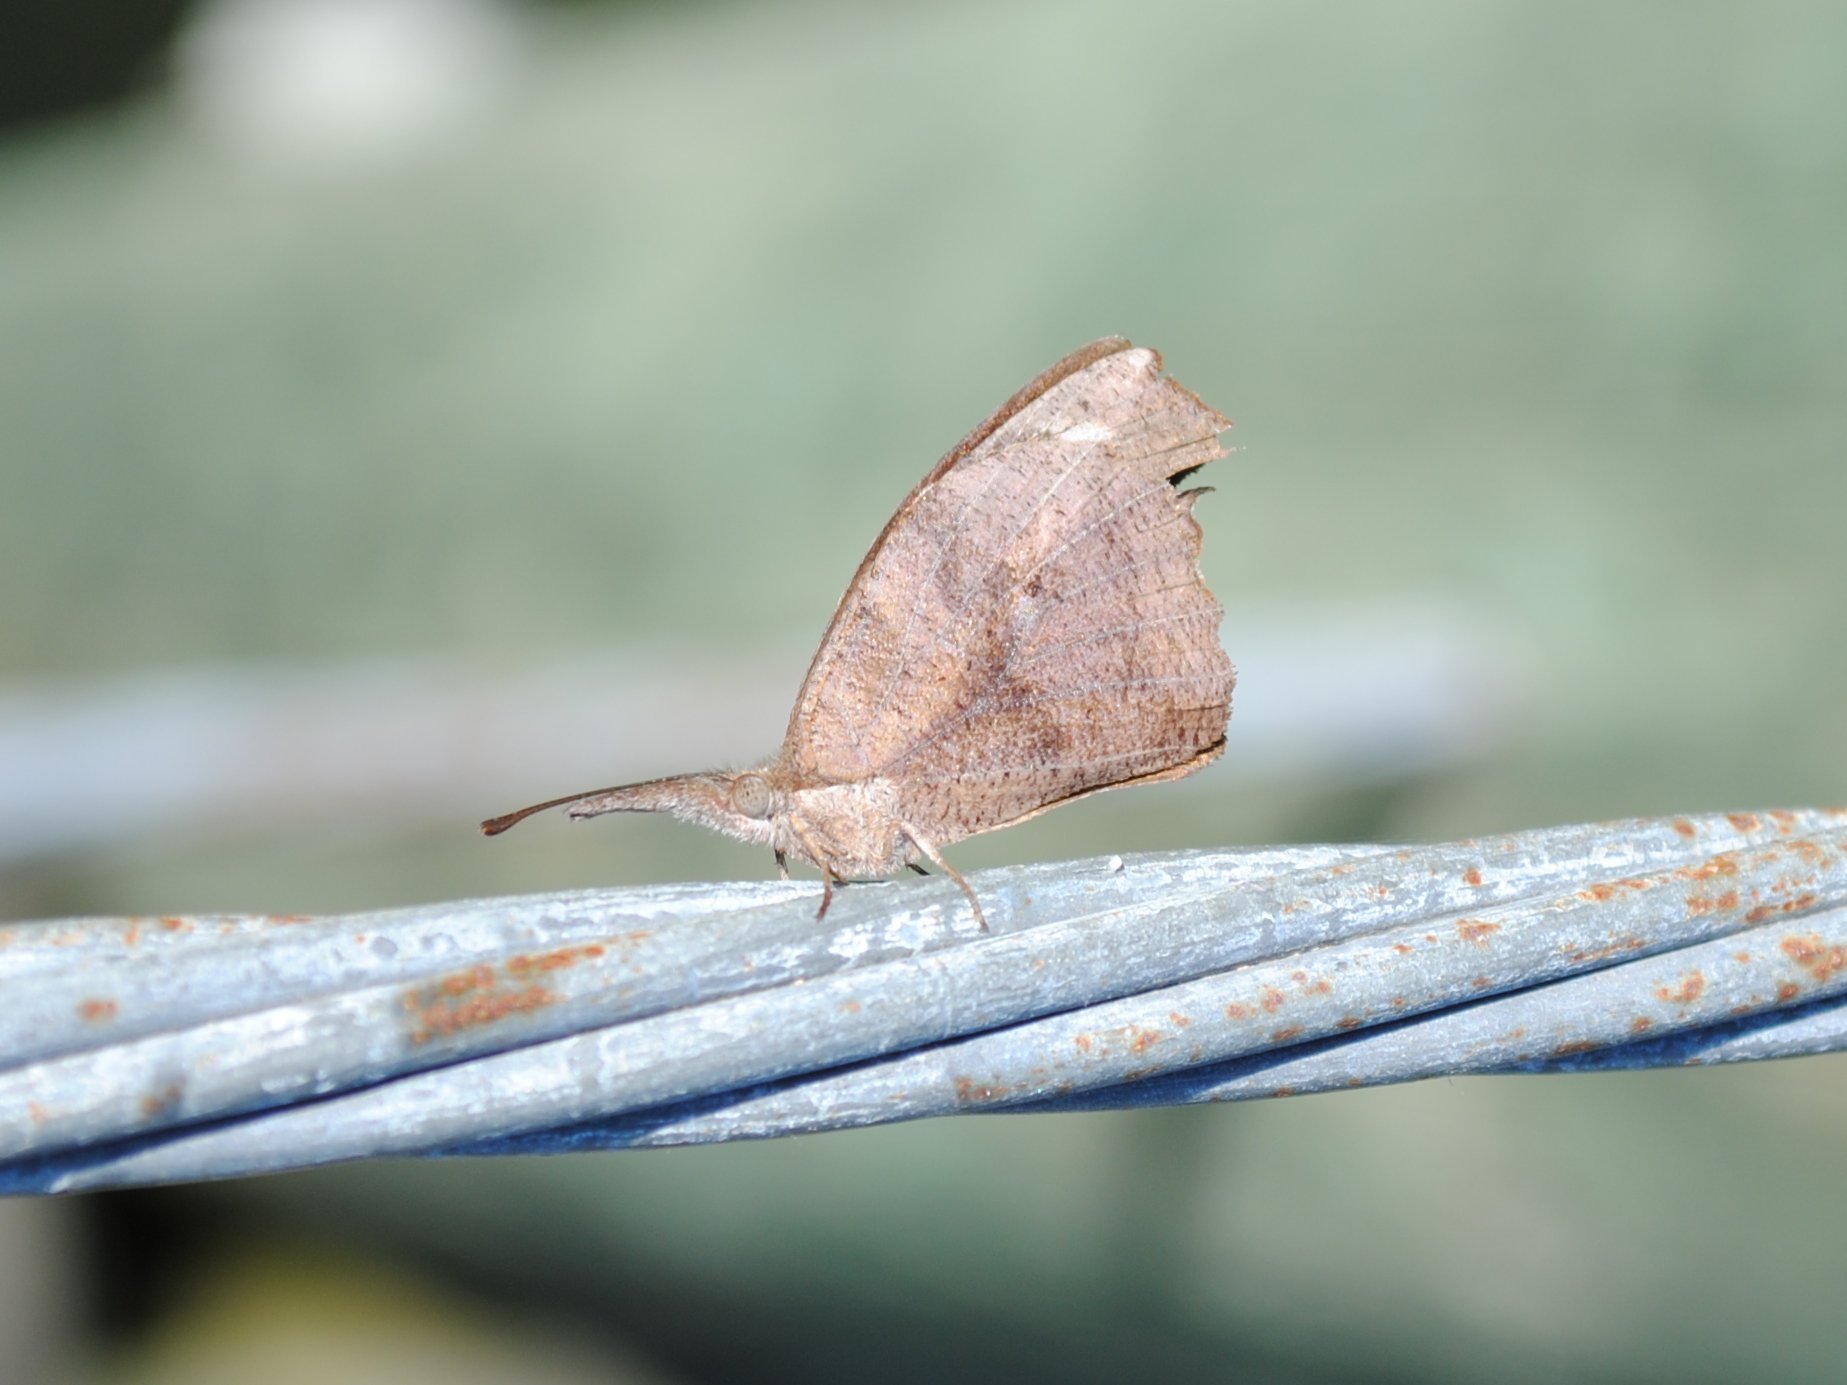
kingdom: Animalia
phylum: Arthropoda
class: Insecta
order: Lepidoptera
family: Nymphalidae
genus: Libytheana
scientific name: Libytheana carinenta
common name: American snout
